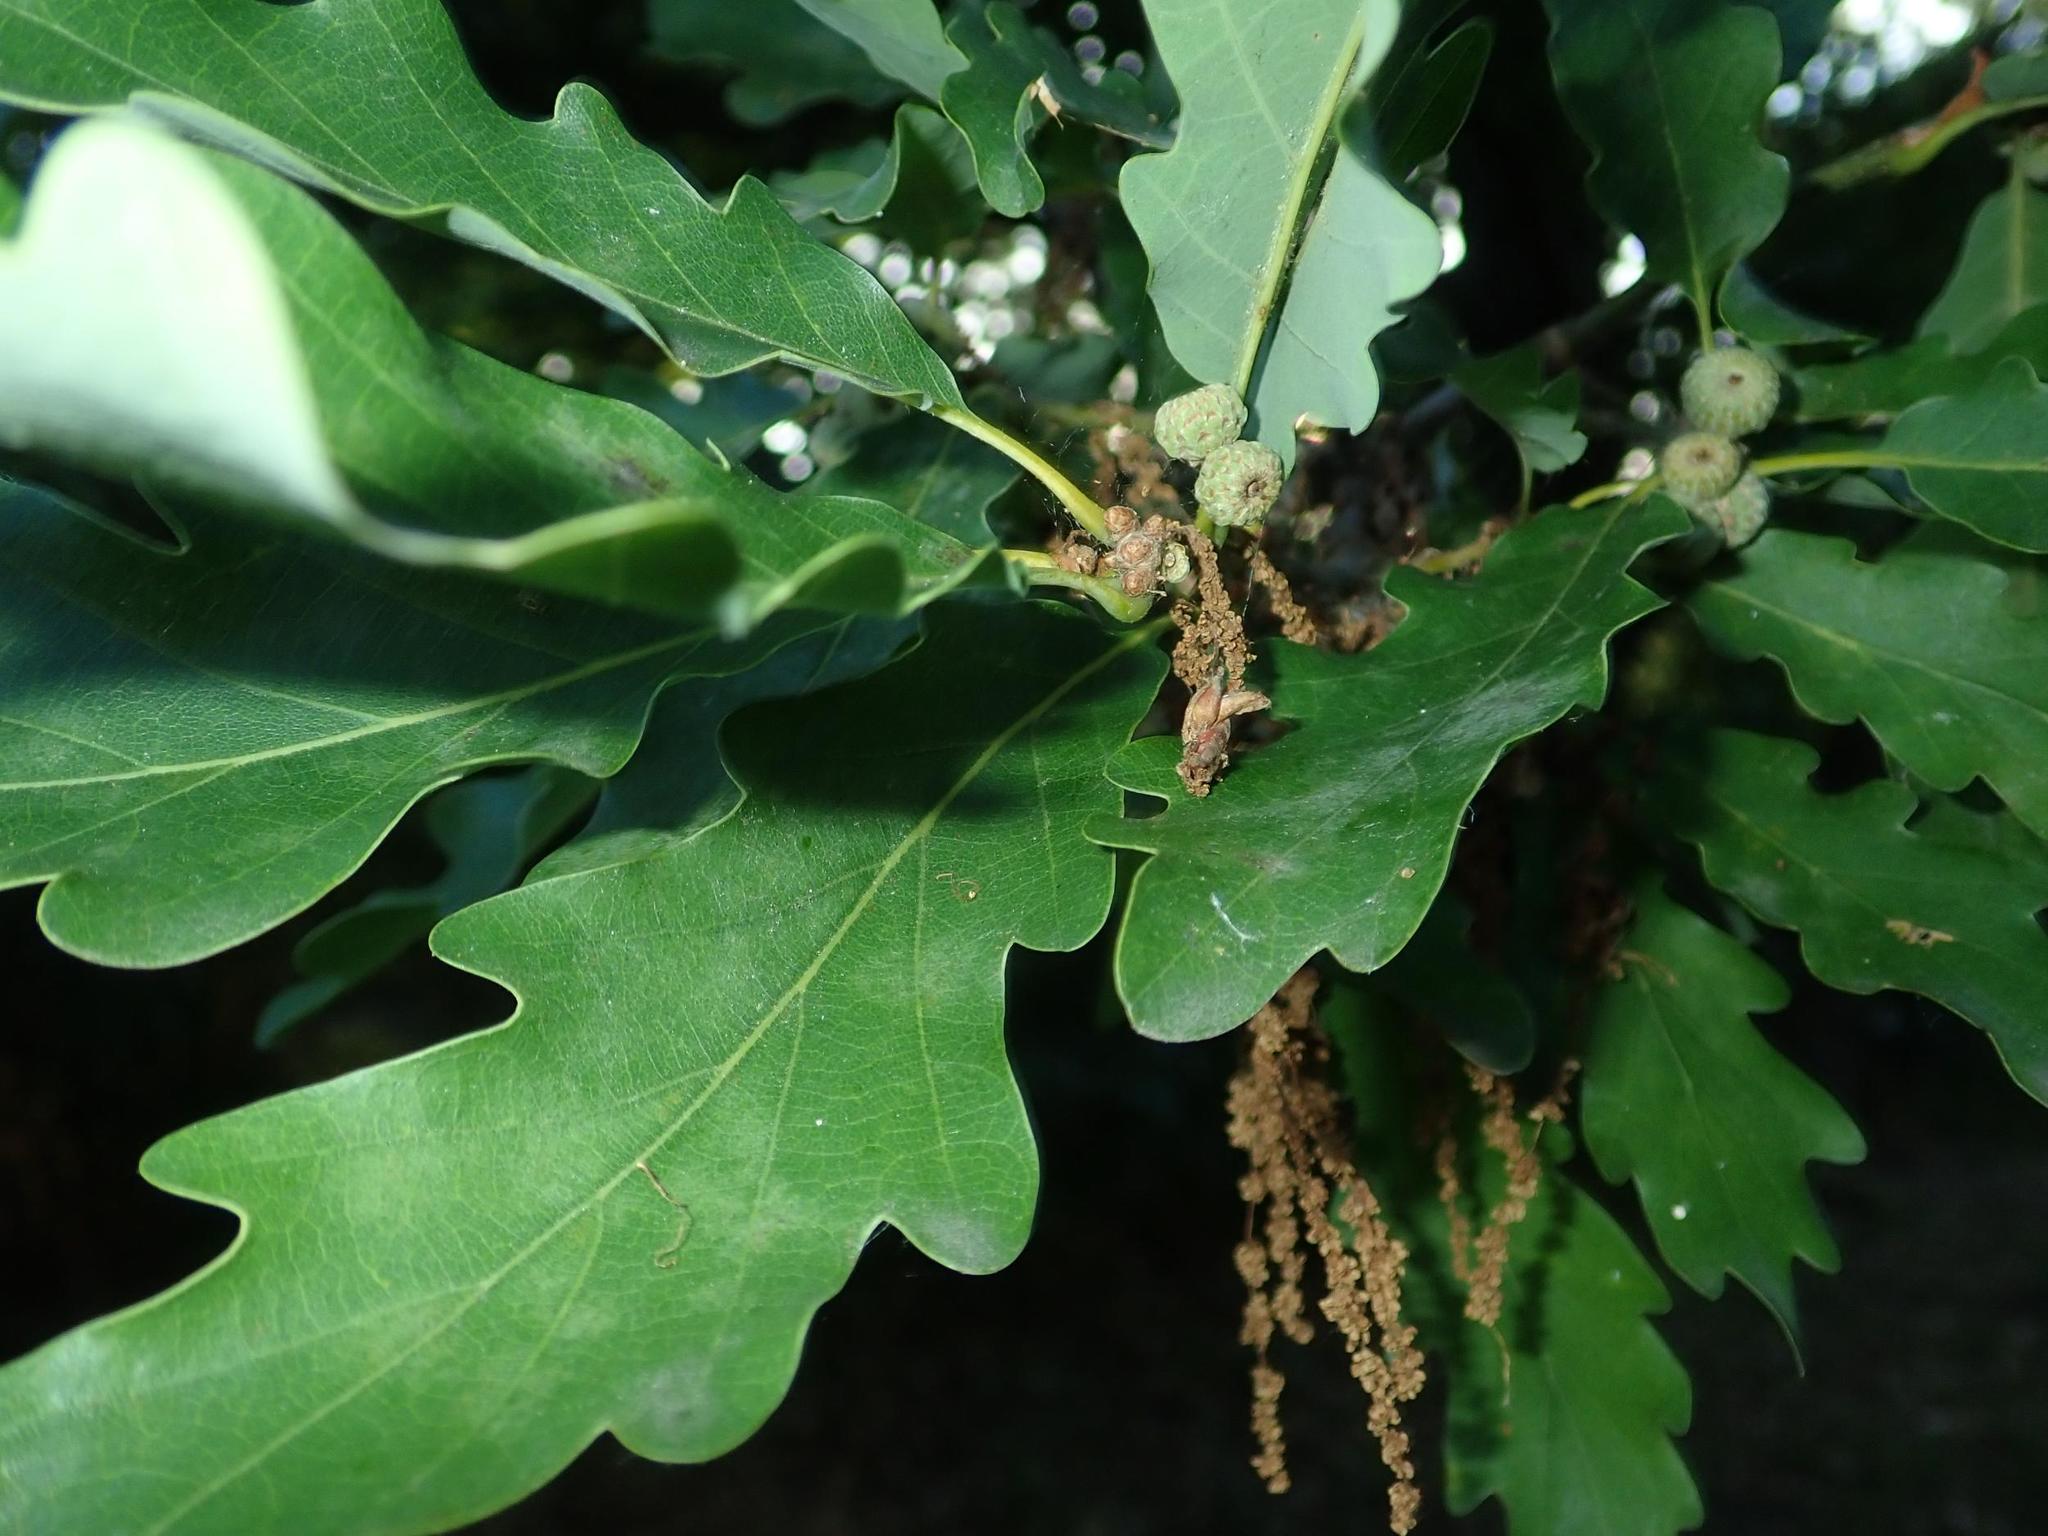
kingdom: Plantae
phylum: Tracheophyta
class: Magnoliopsida
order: Fagales
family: Fagaceae
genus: Quercus
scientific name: Quercus petraea
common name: Sessile oak
